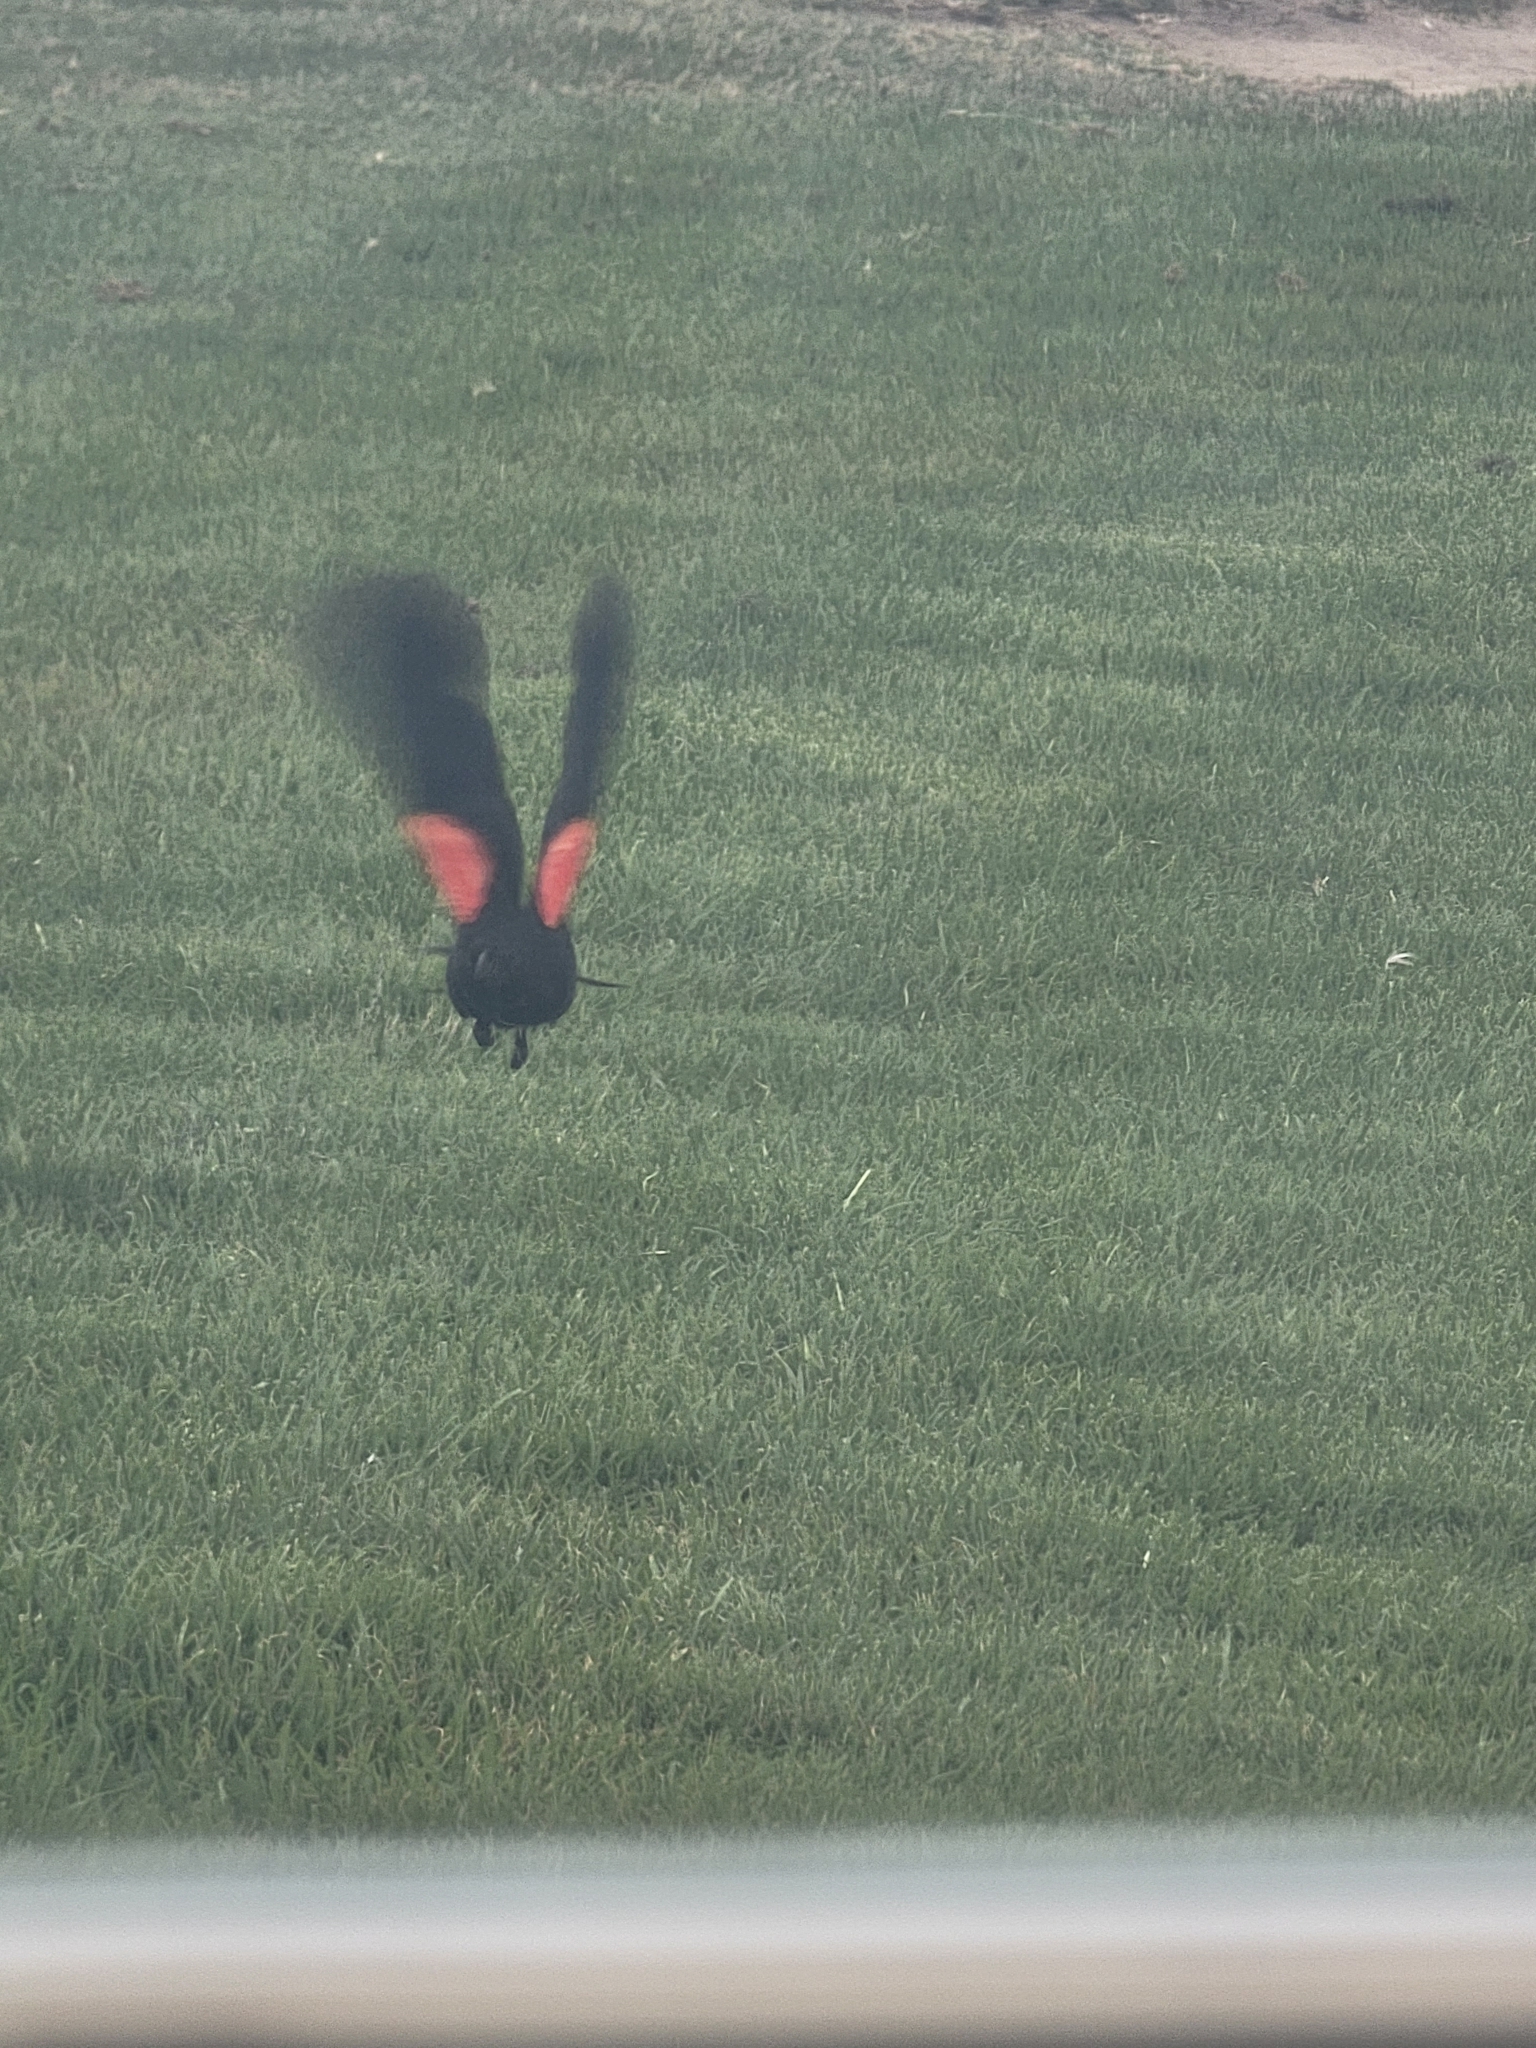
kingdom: Animalia
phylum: Chordata
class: Aves
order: Passeriformes
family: Icteridae
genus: Agelaius
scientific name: Agelaius phoeniceus
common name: Red-winged blackbird
